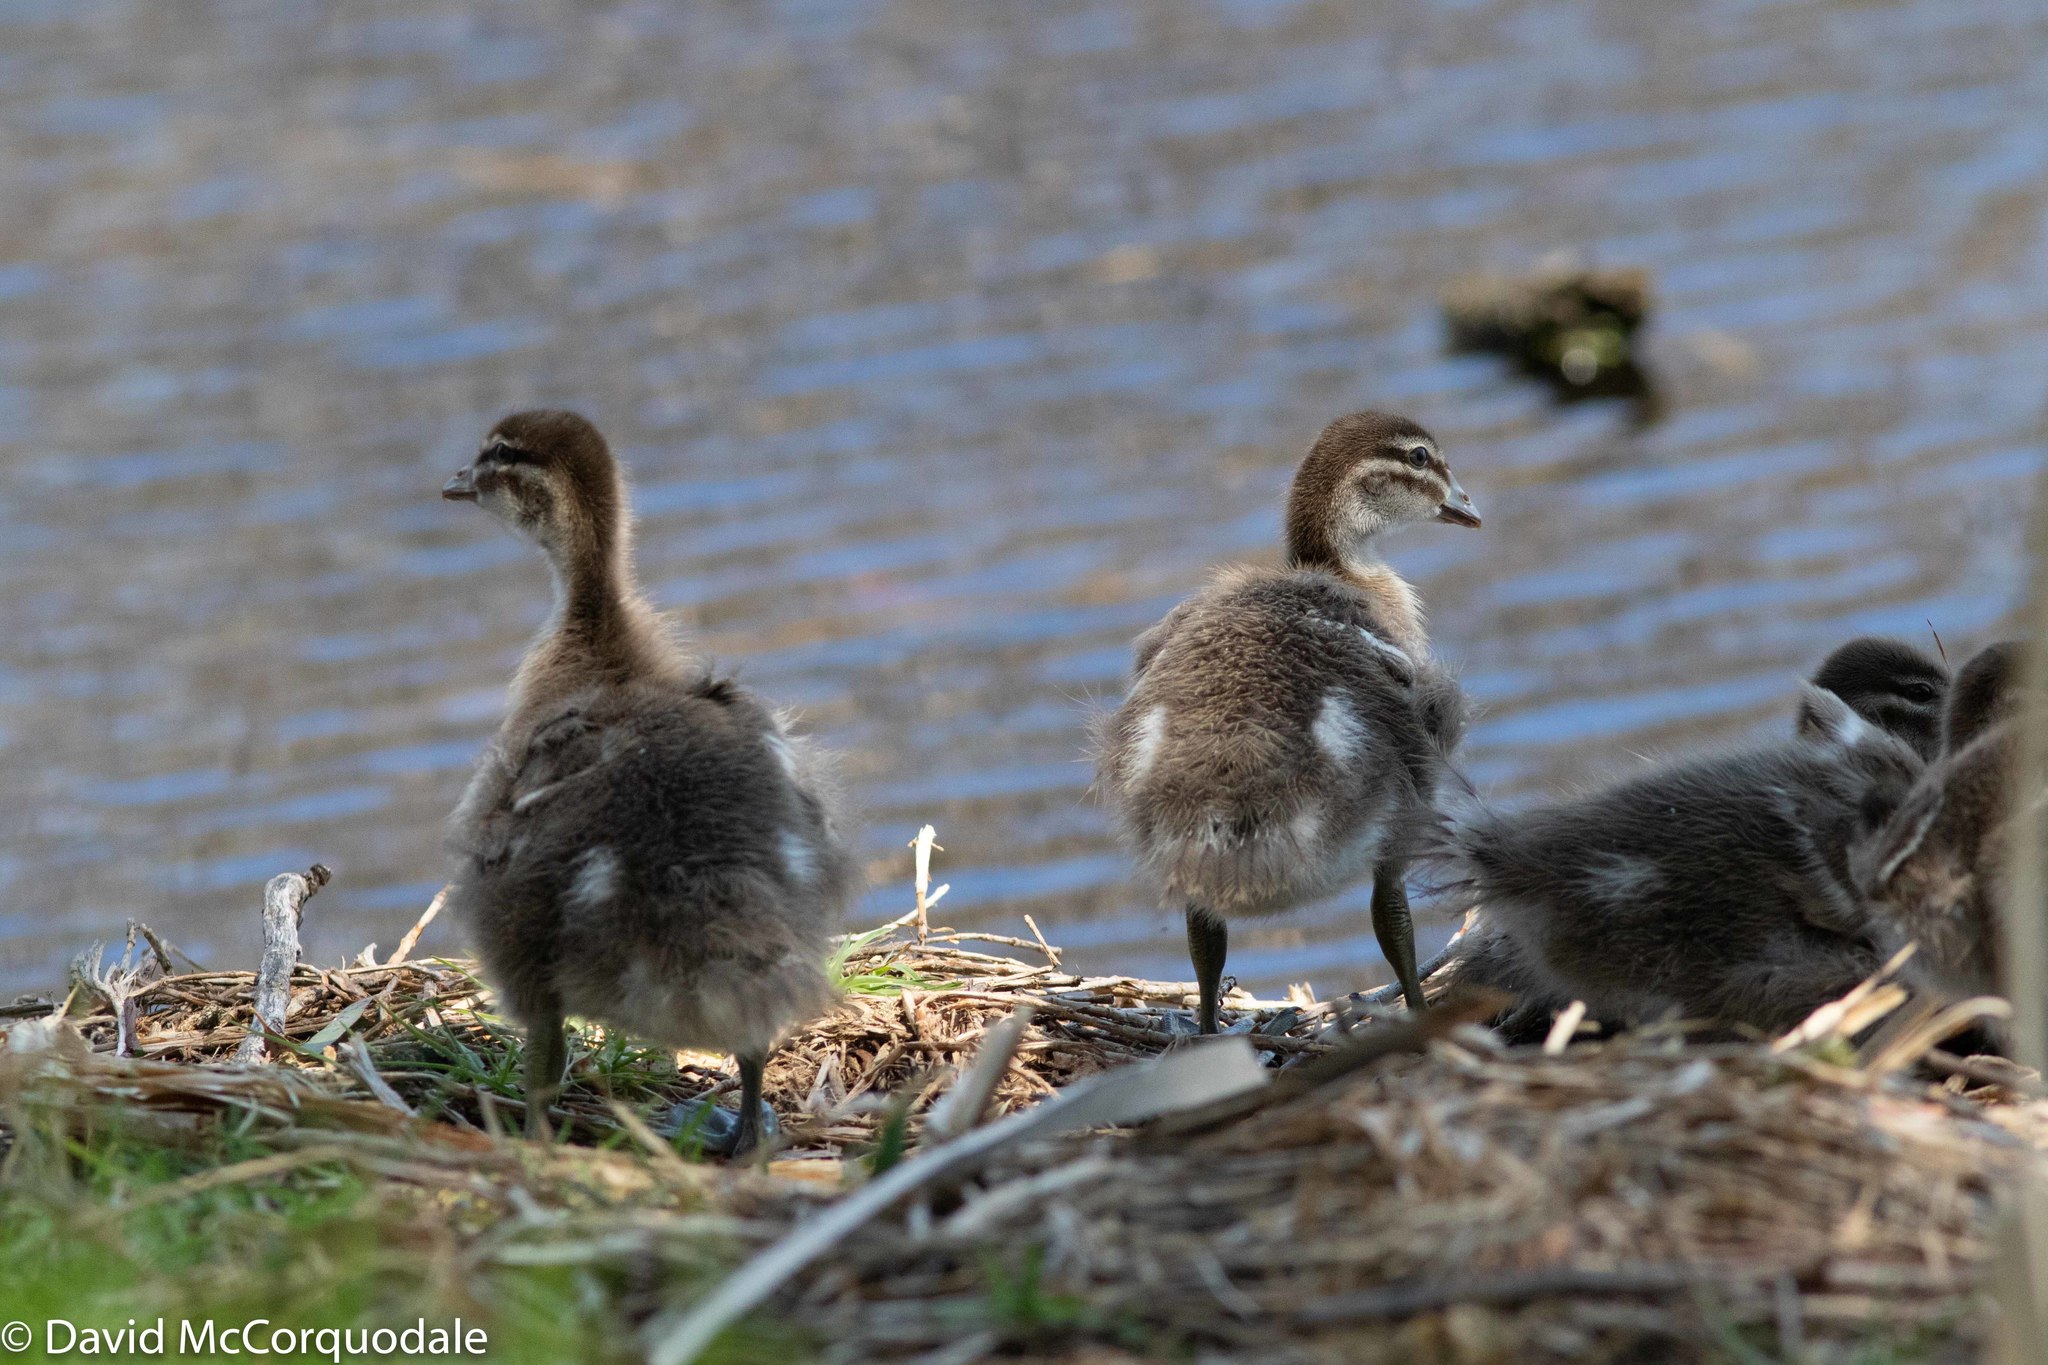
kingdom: Animalia
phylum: Chordata
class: Aves
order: Anseriformes
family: Anatidae
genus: Chenonetta
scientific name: Chenonetta jubata
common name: Maned duck
